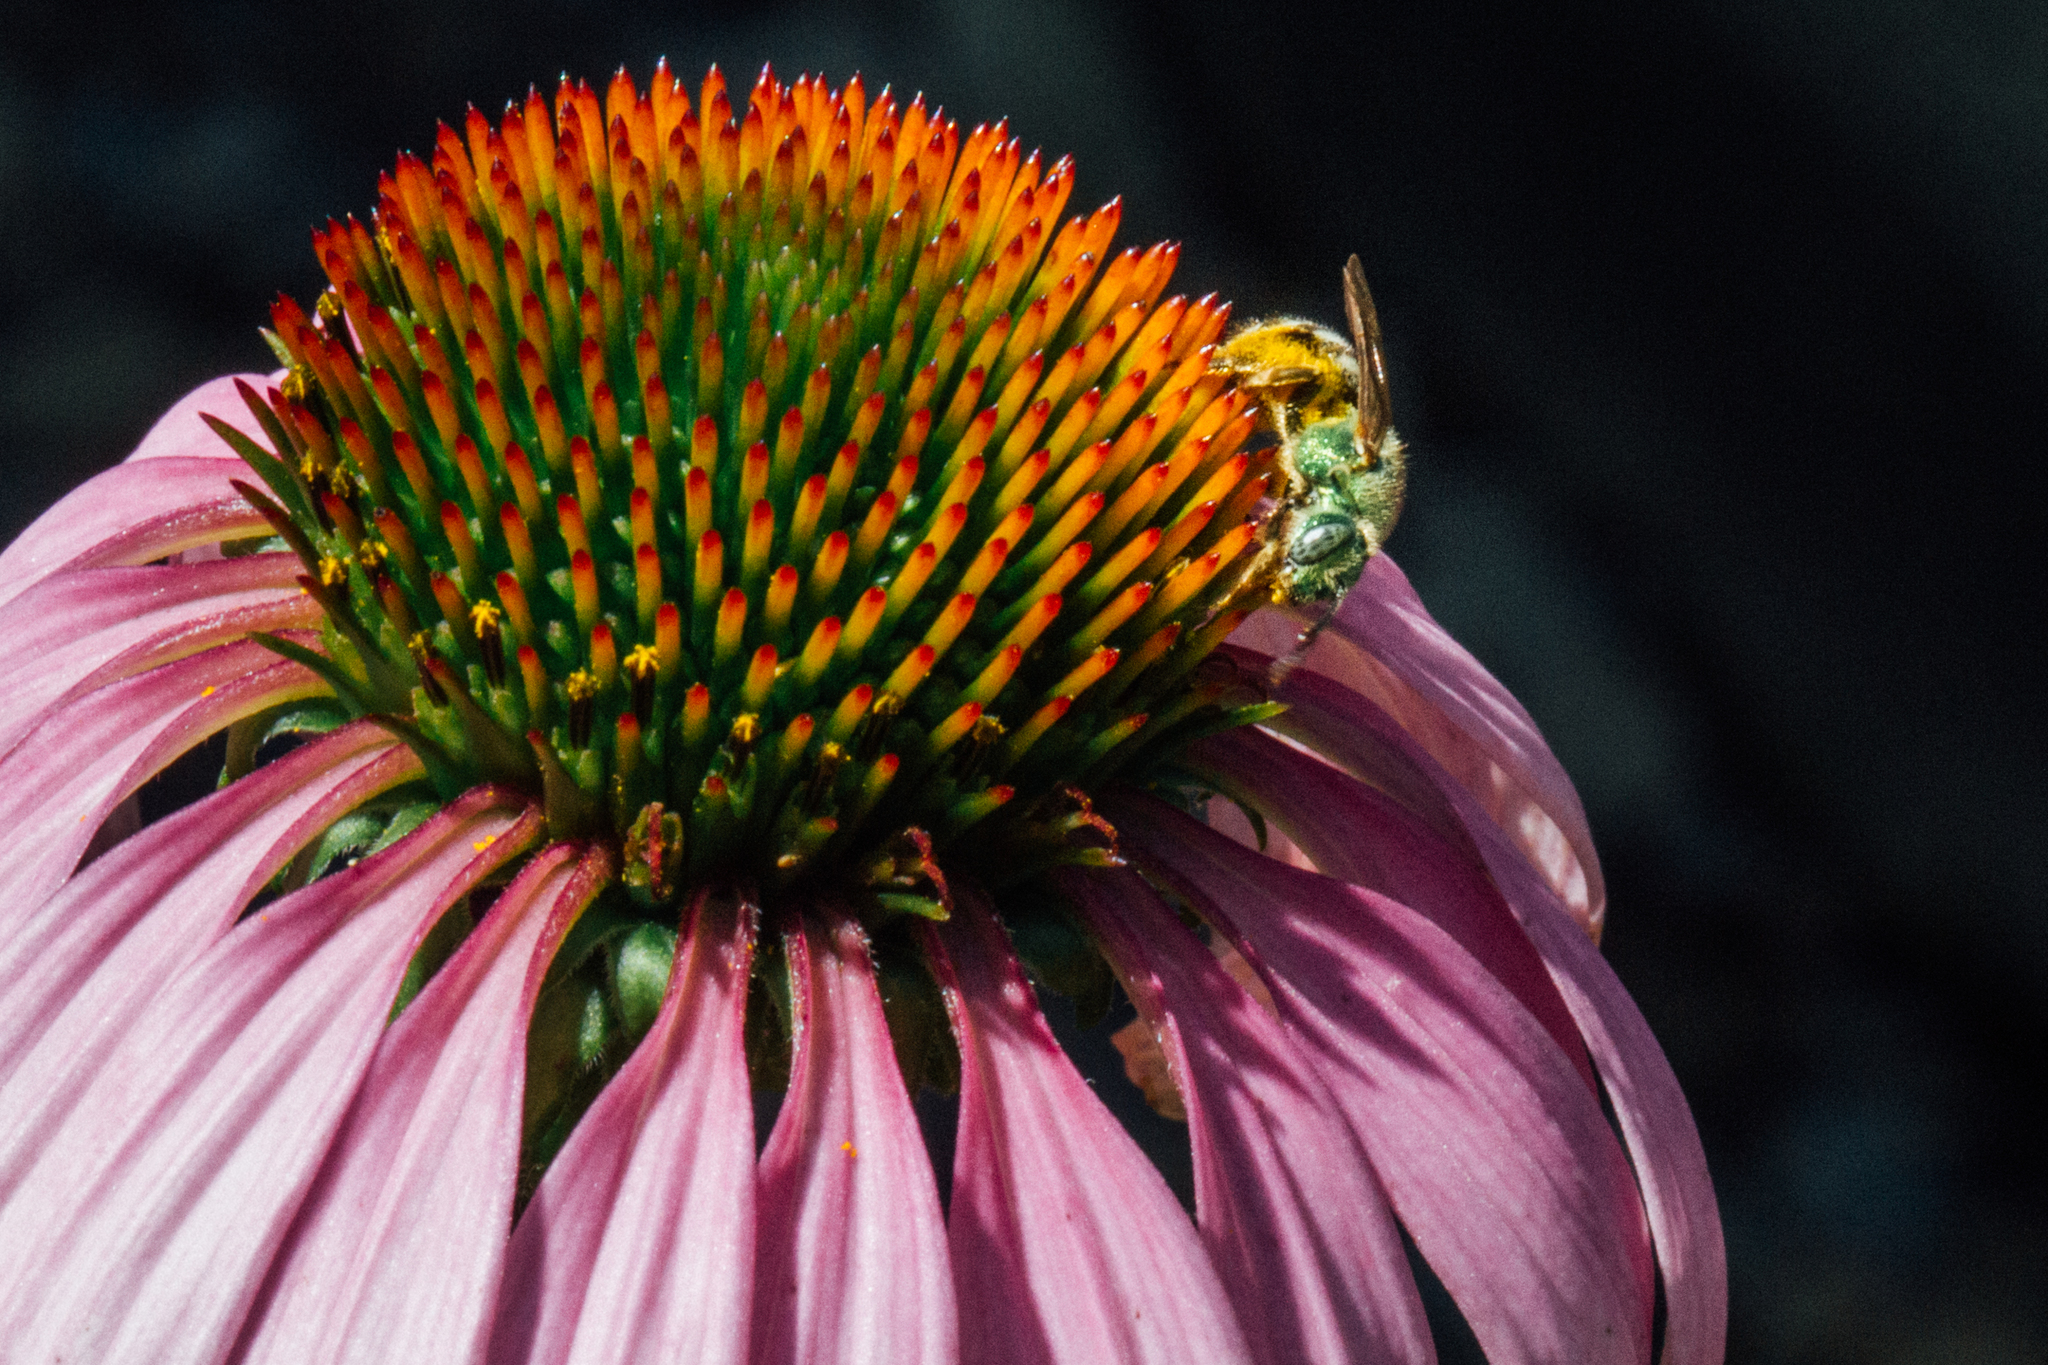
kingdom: Animalia
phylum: Arthropoda
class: Insecta
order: Hymenoptera
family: Halictidae
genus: Agapostemon
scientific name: Agapostemon virescens
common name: Bicolored striped sweat bee
